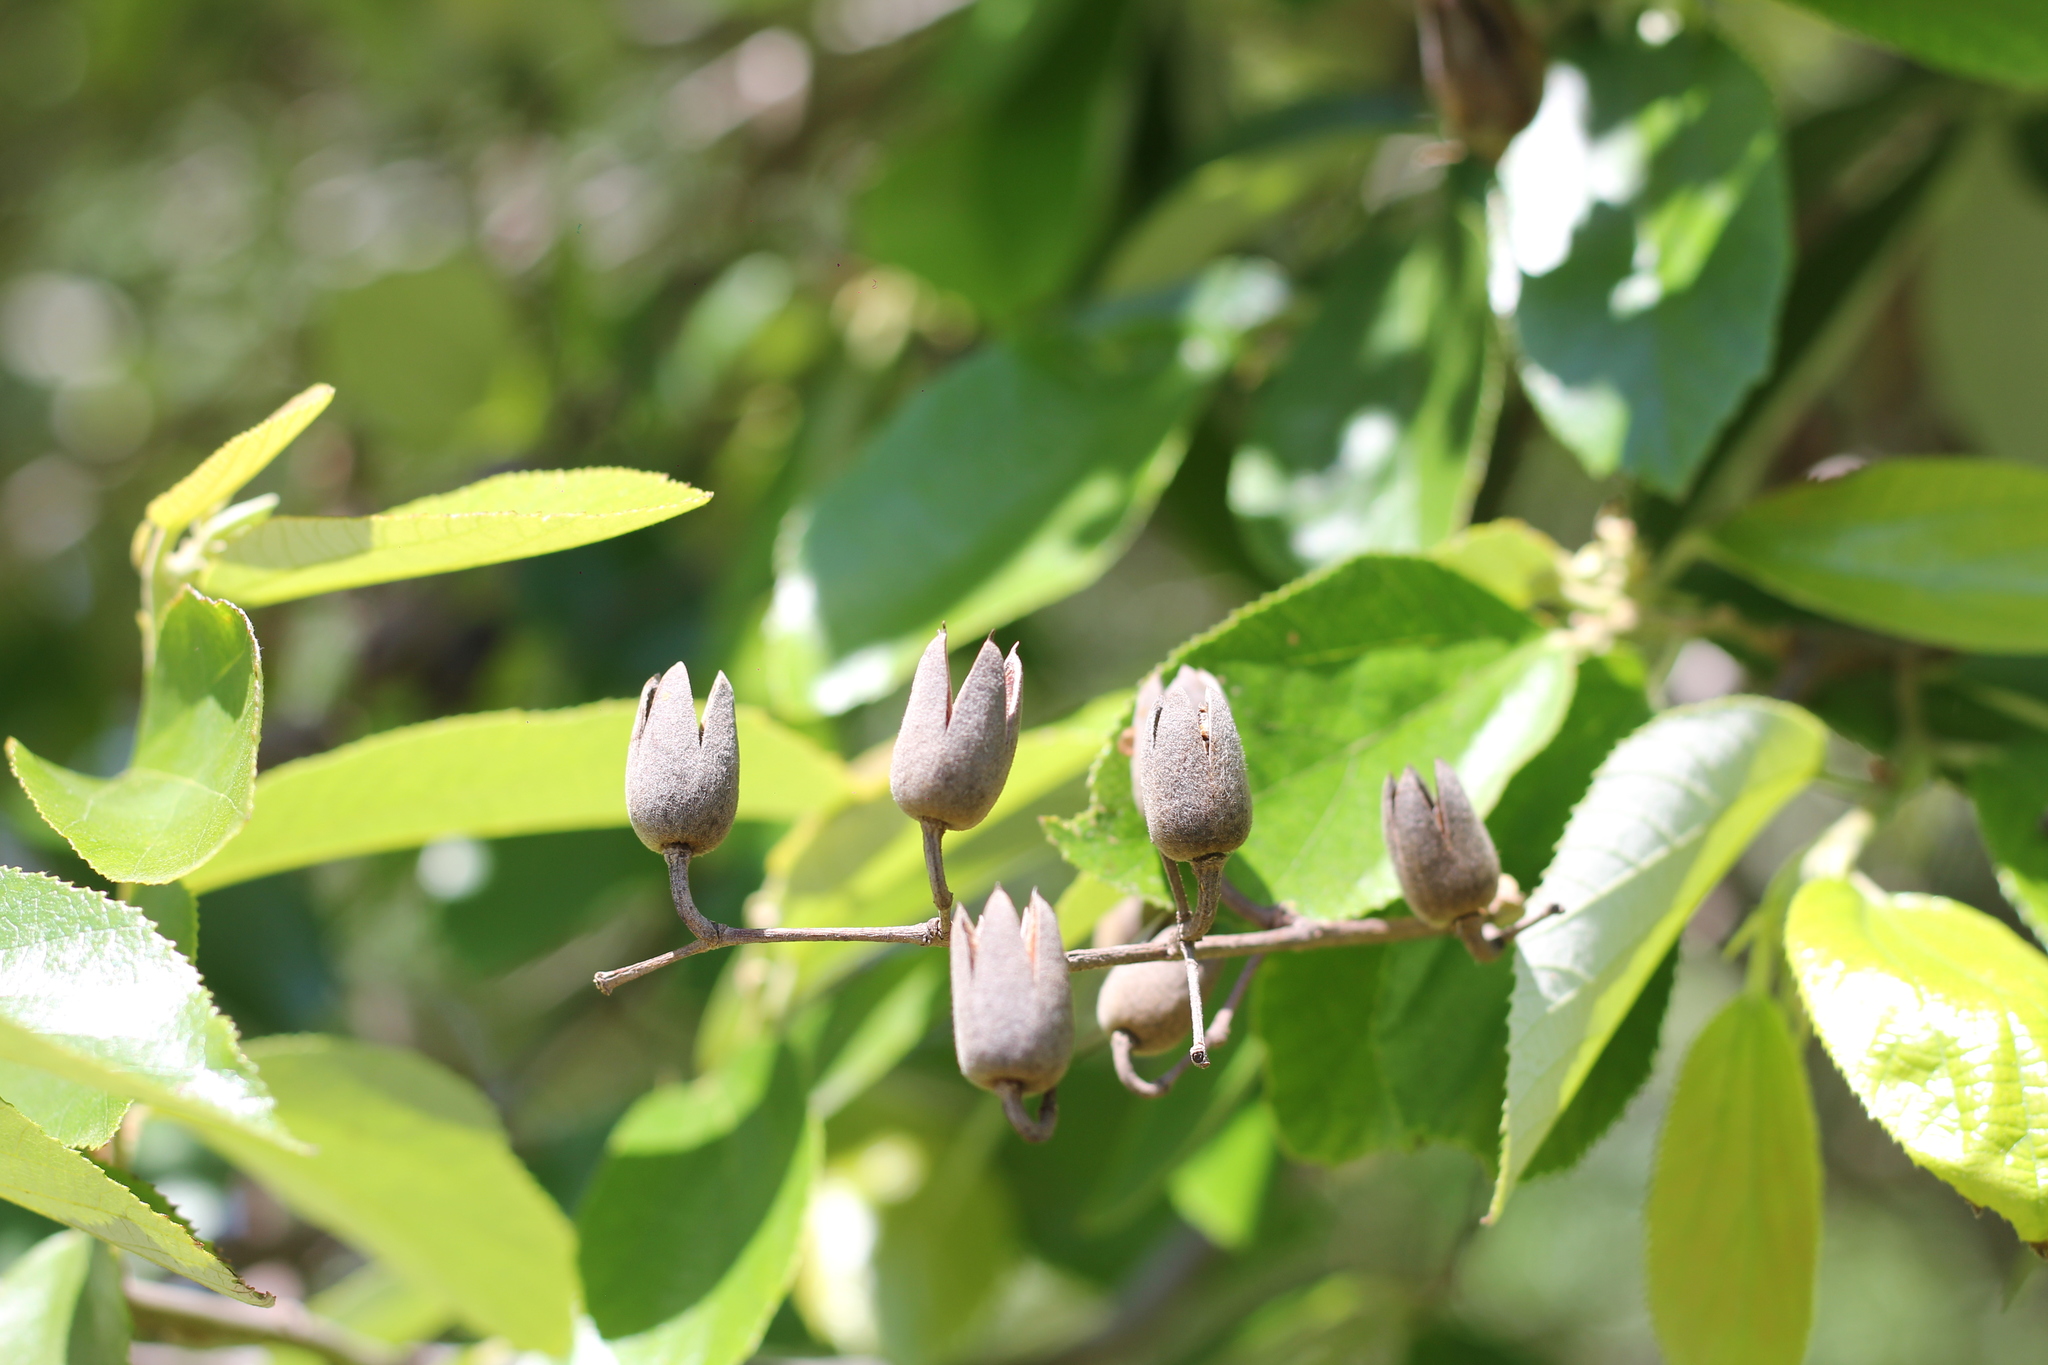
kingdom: Plantae
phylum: Tracheophyta
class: Magnoliopsida
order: Malvales
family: Malvaceae
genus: Luehea
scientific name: Luehea divaricata
